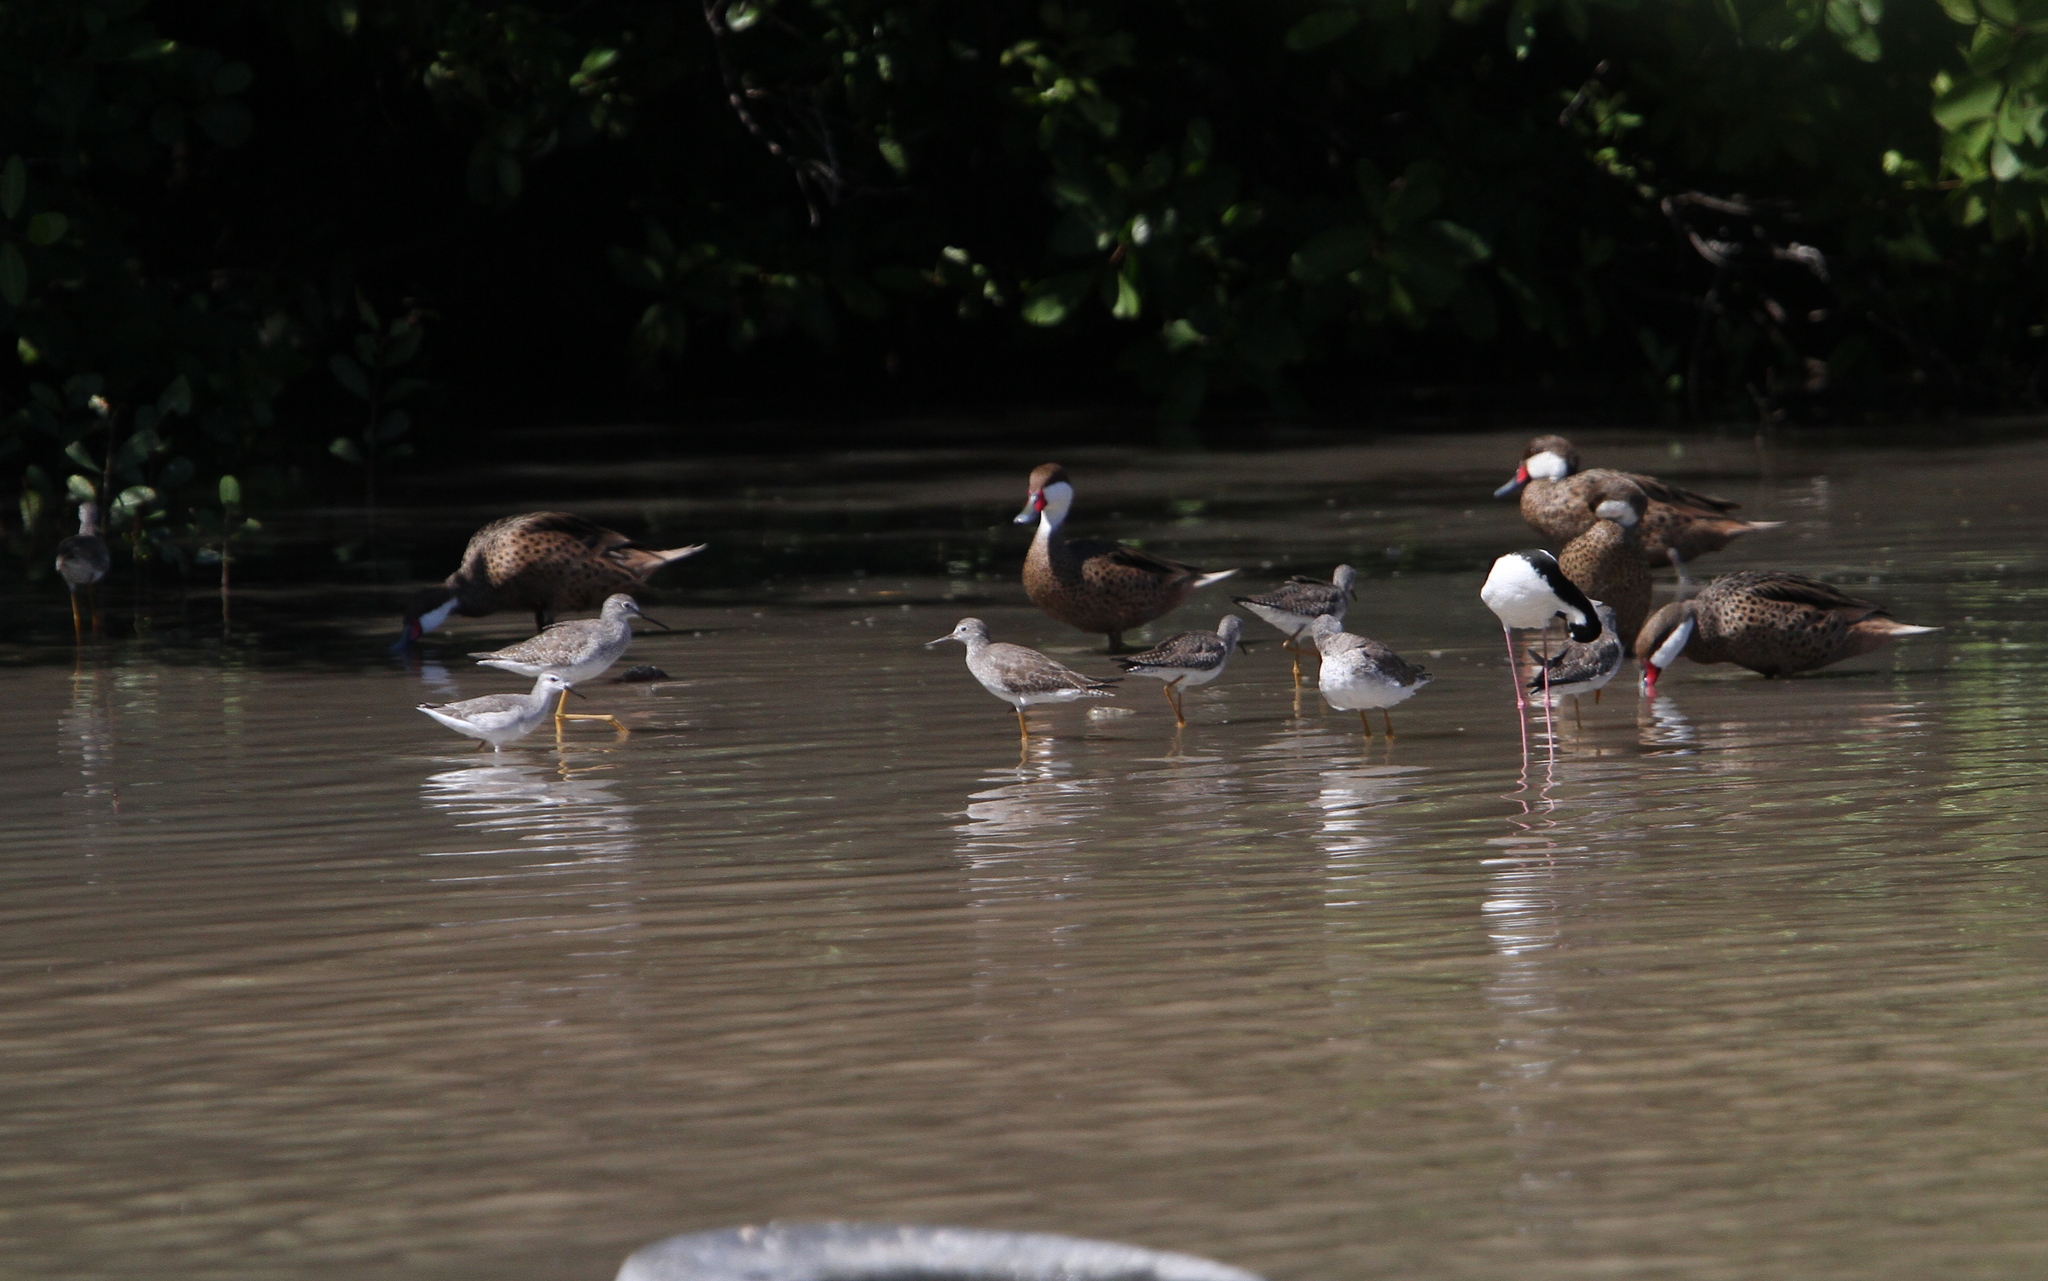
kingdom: Animalia
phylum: Chordata
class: Aves
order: Charadriiformes
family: Scolopacidae
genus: Phalaropus
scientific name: Phalaropus tricolor
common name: Wilson's phalarope
